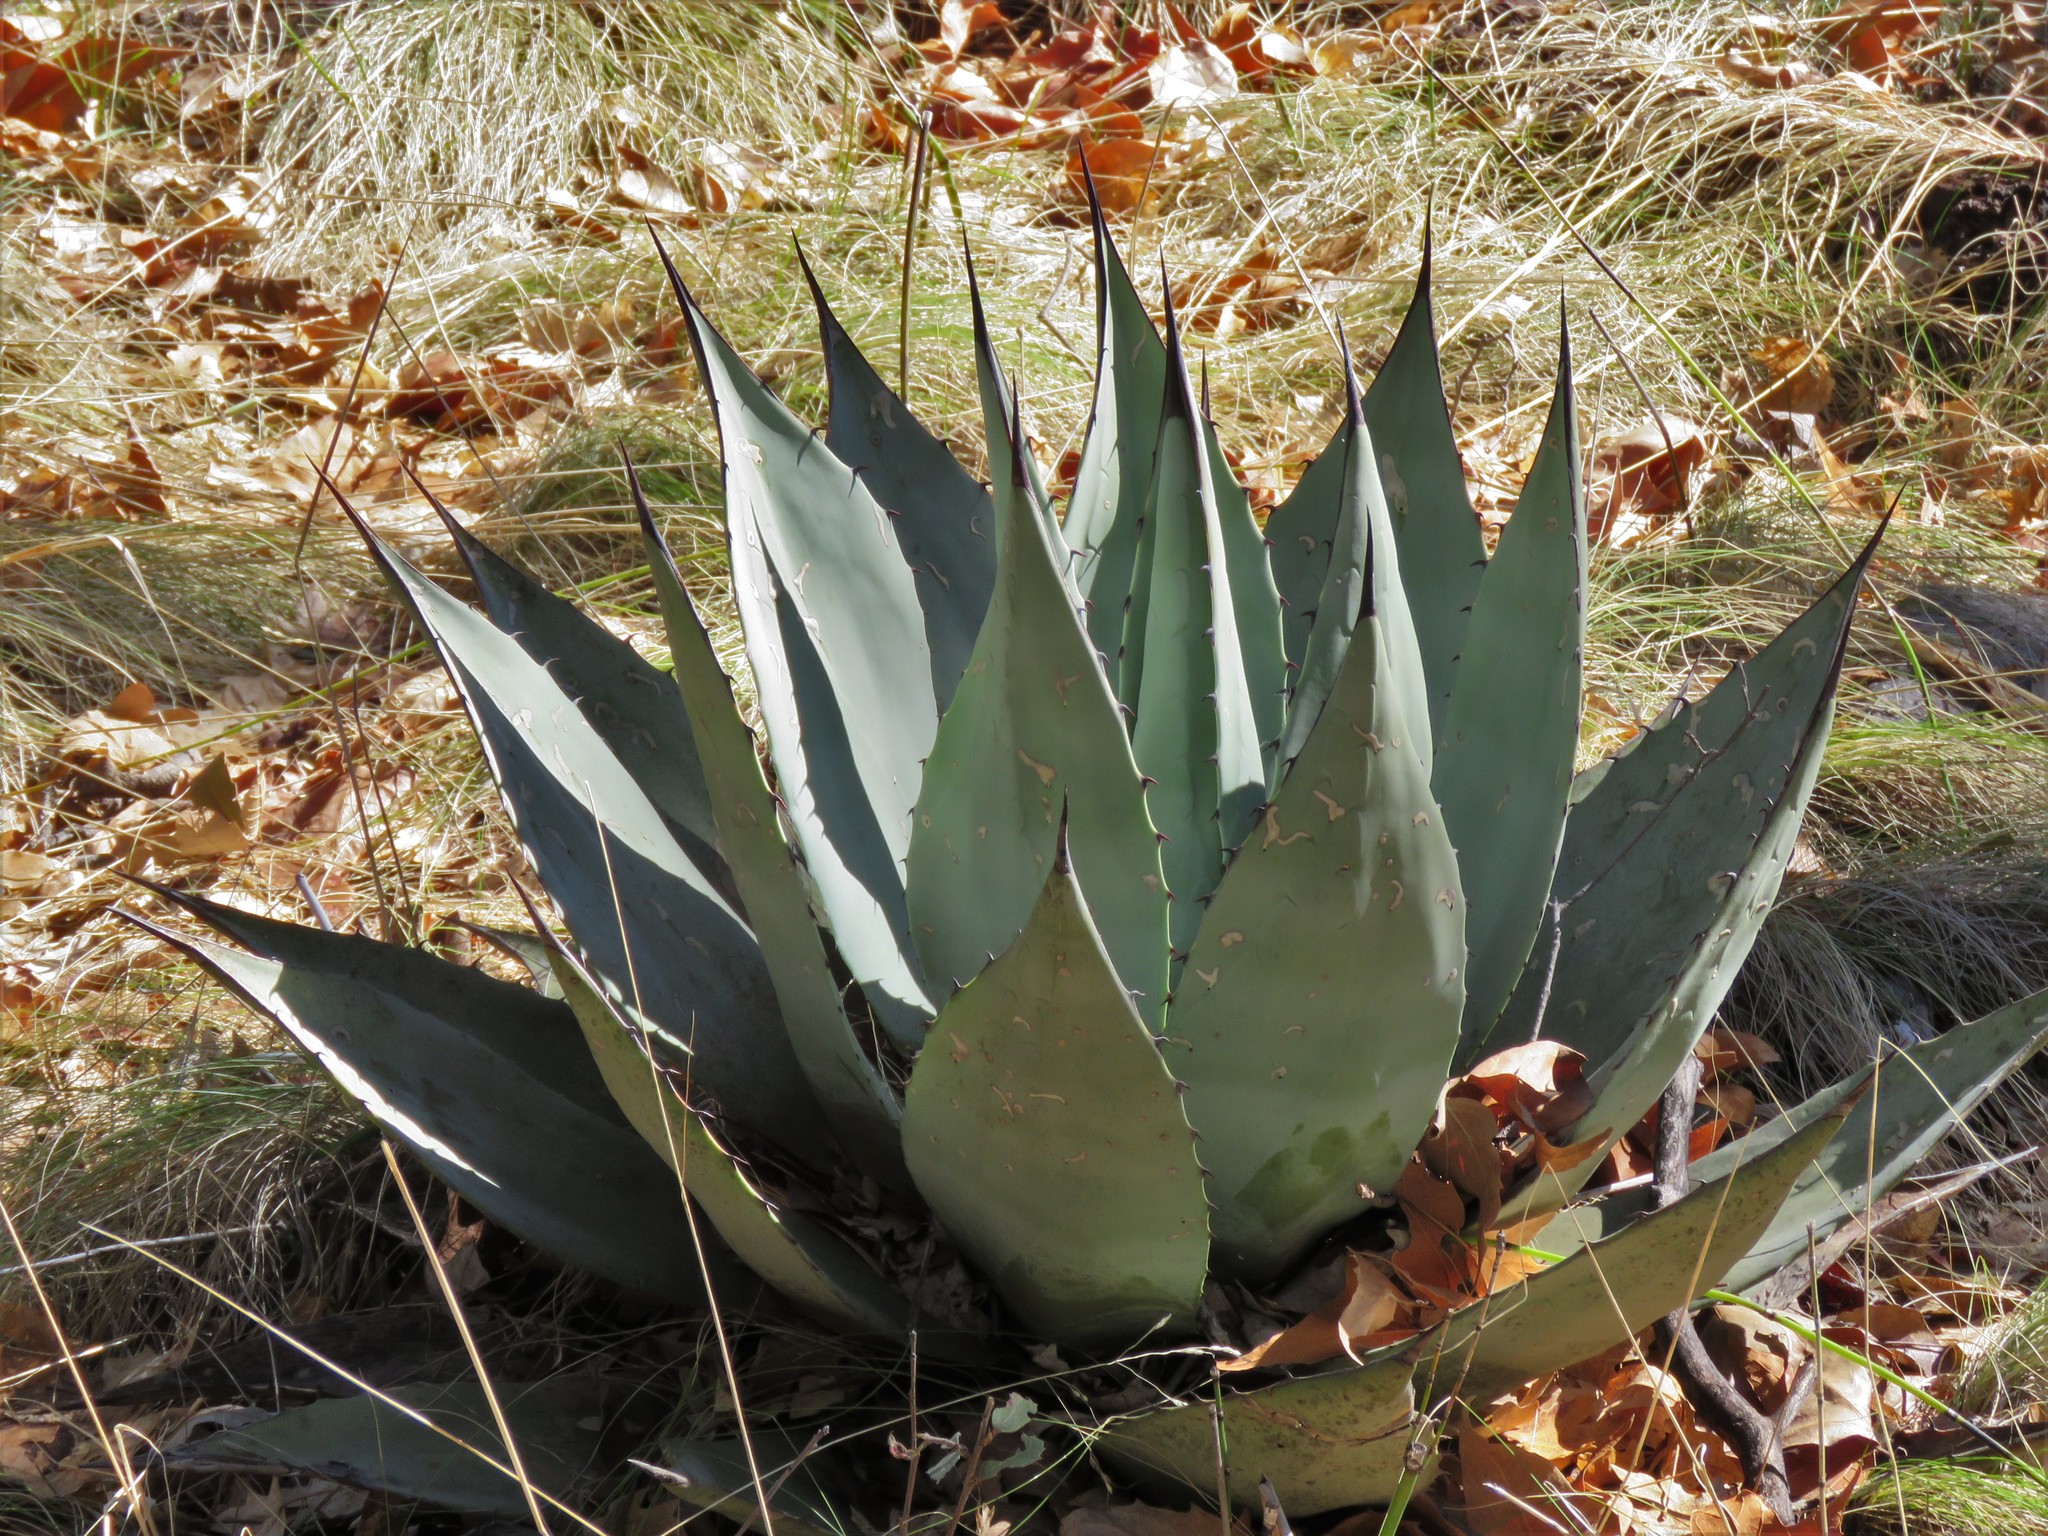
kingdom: Plantae
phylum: Tracheophyta
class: Liliopsida
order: Asparagales
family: Asparagaceae
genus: Agave
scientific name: Agave parryi
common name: Parry's agave
